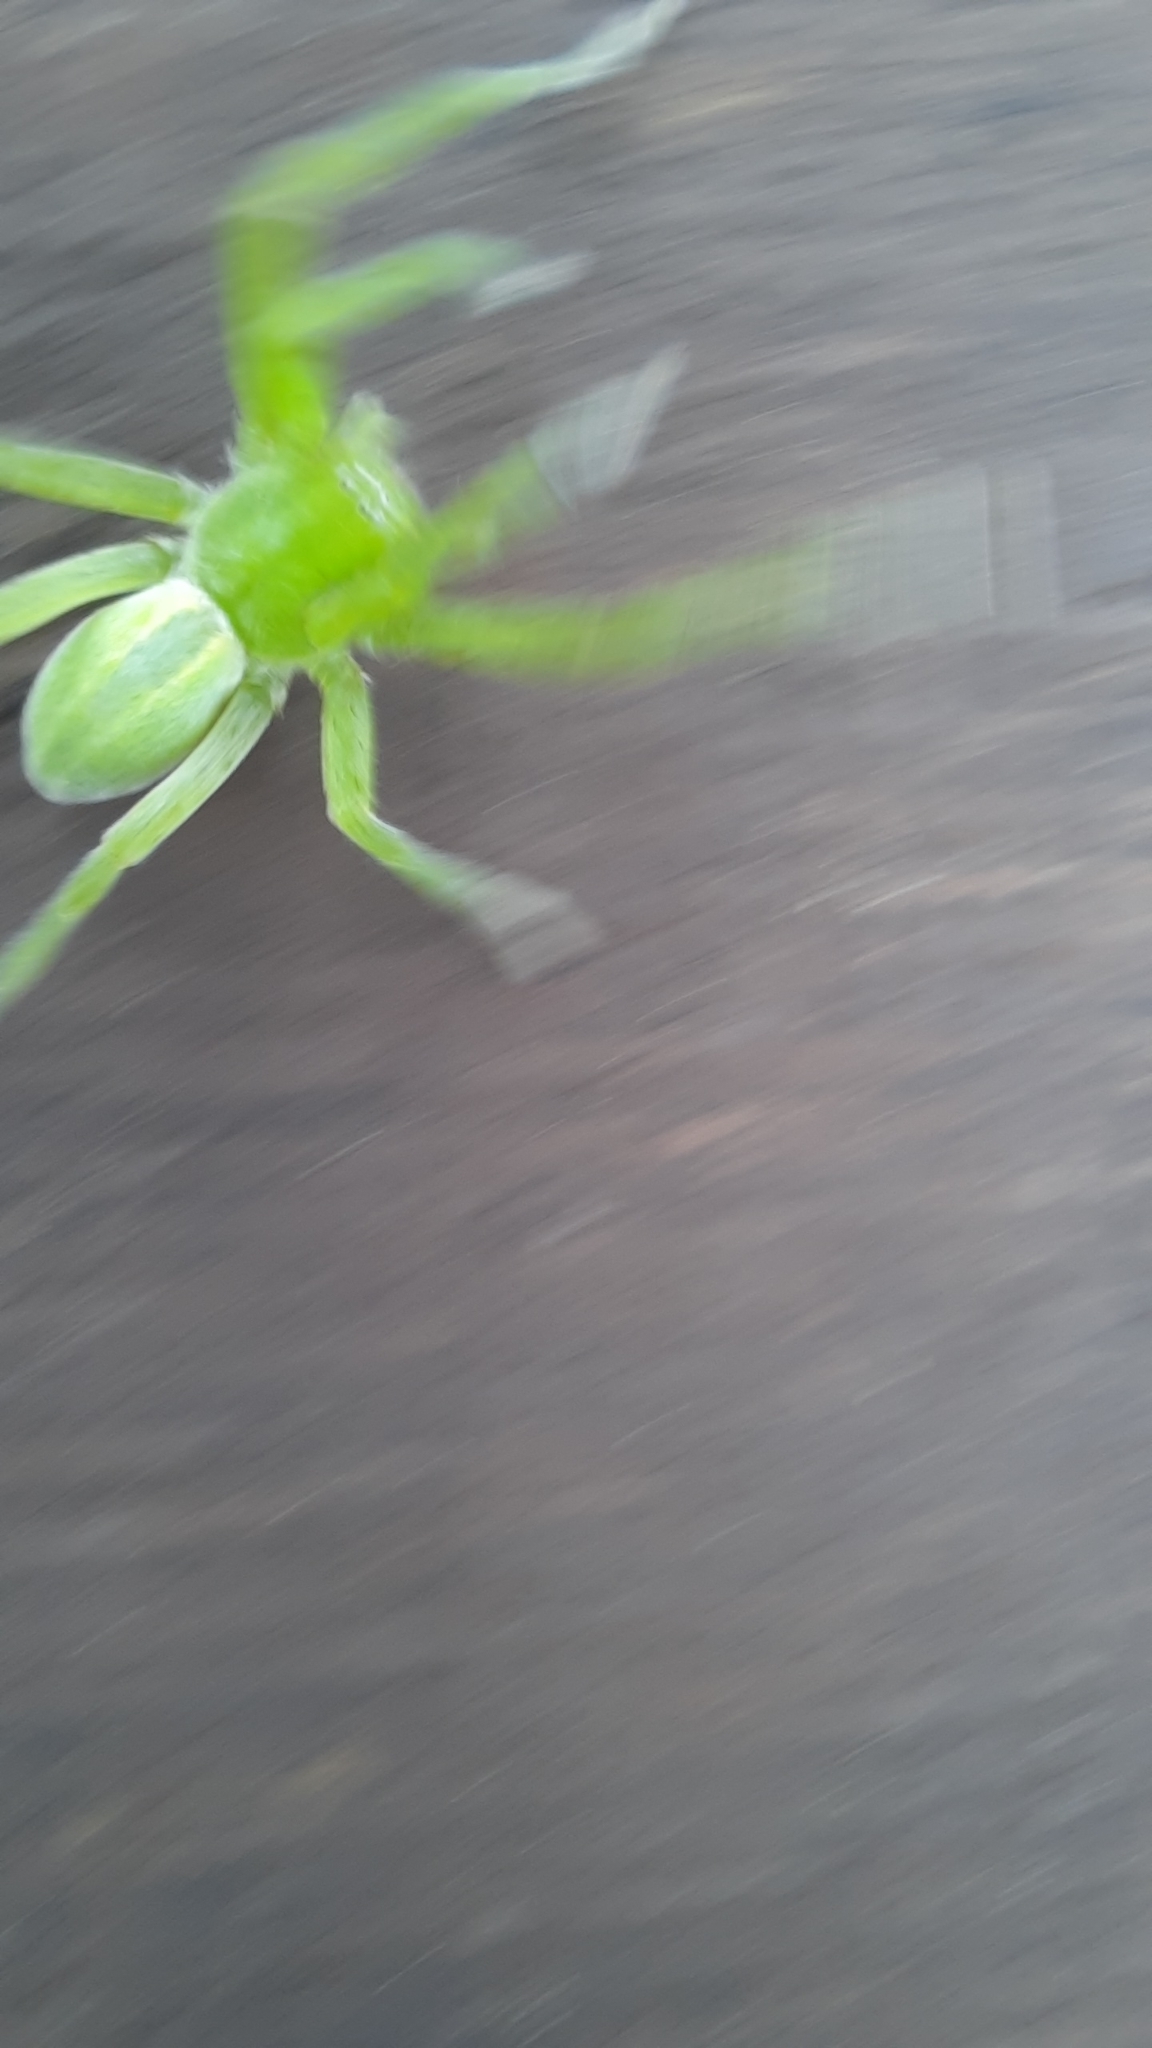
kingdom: Animalia
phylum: Arthropoda
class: Arachnida
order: Araneae
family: Sparassidae
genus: Micrommata
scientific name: Micrommata virescens
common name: Green spider
